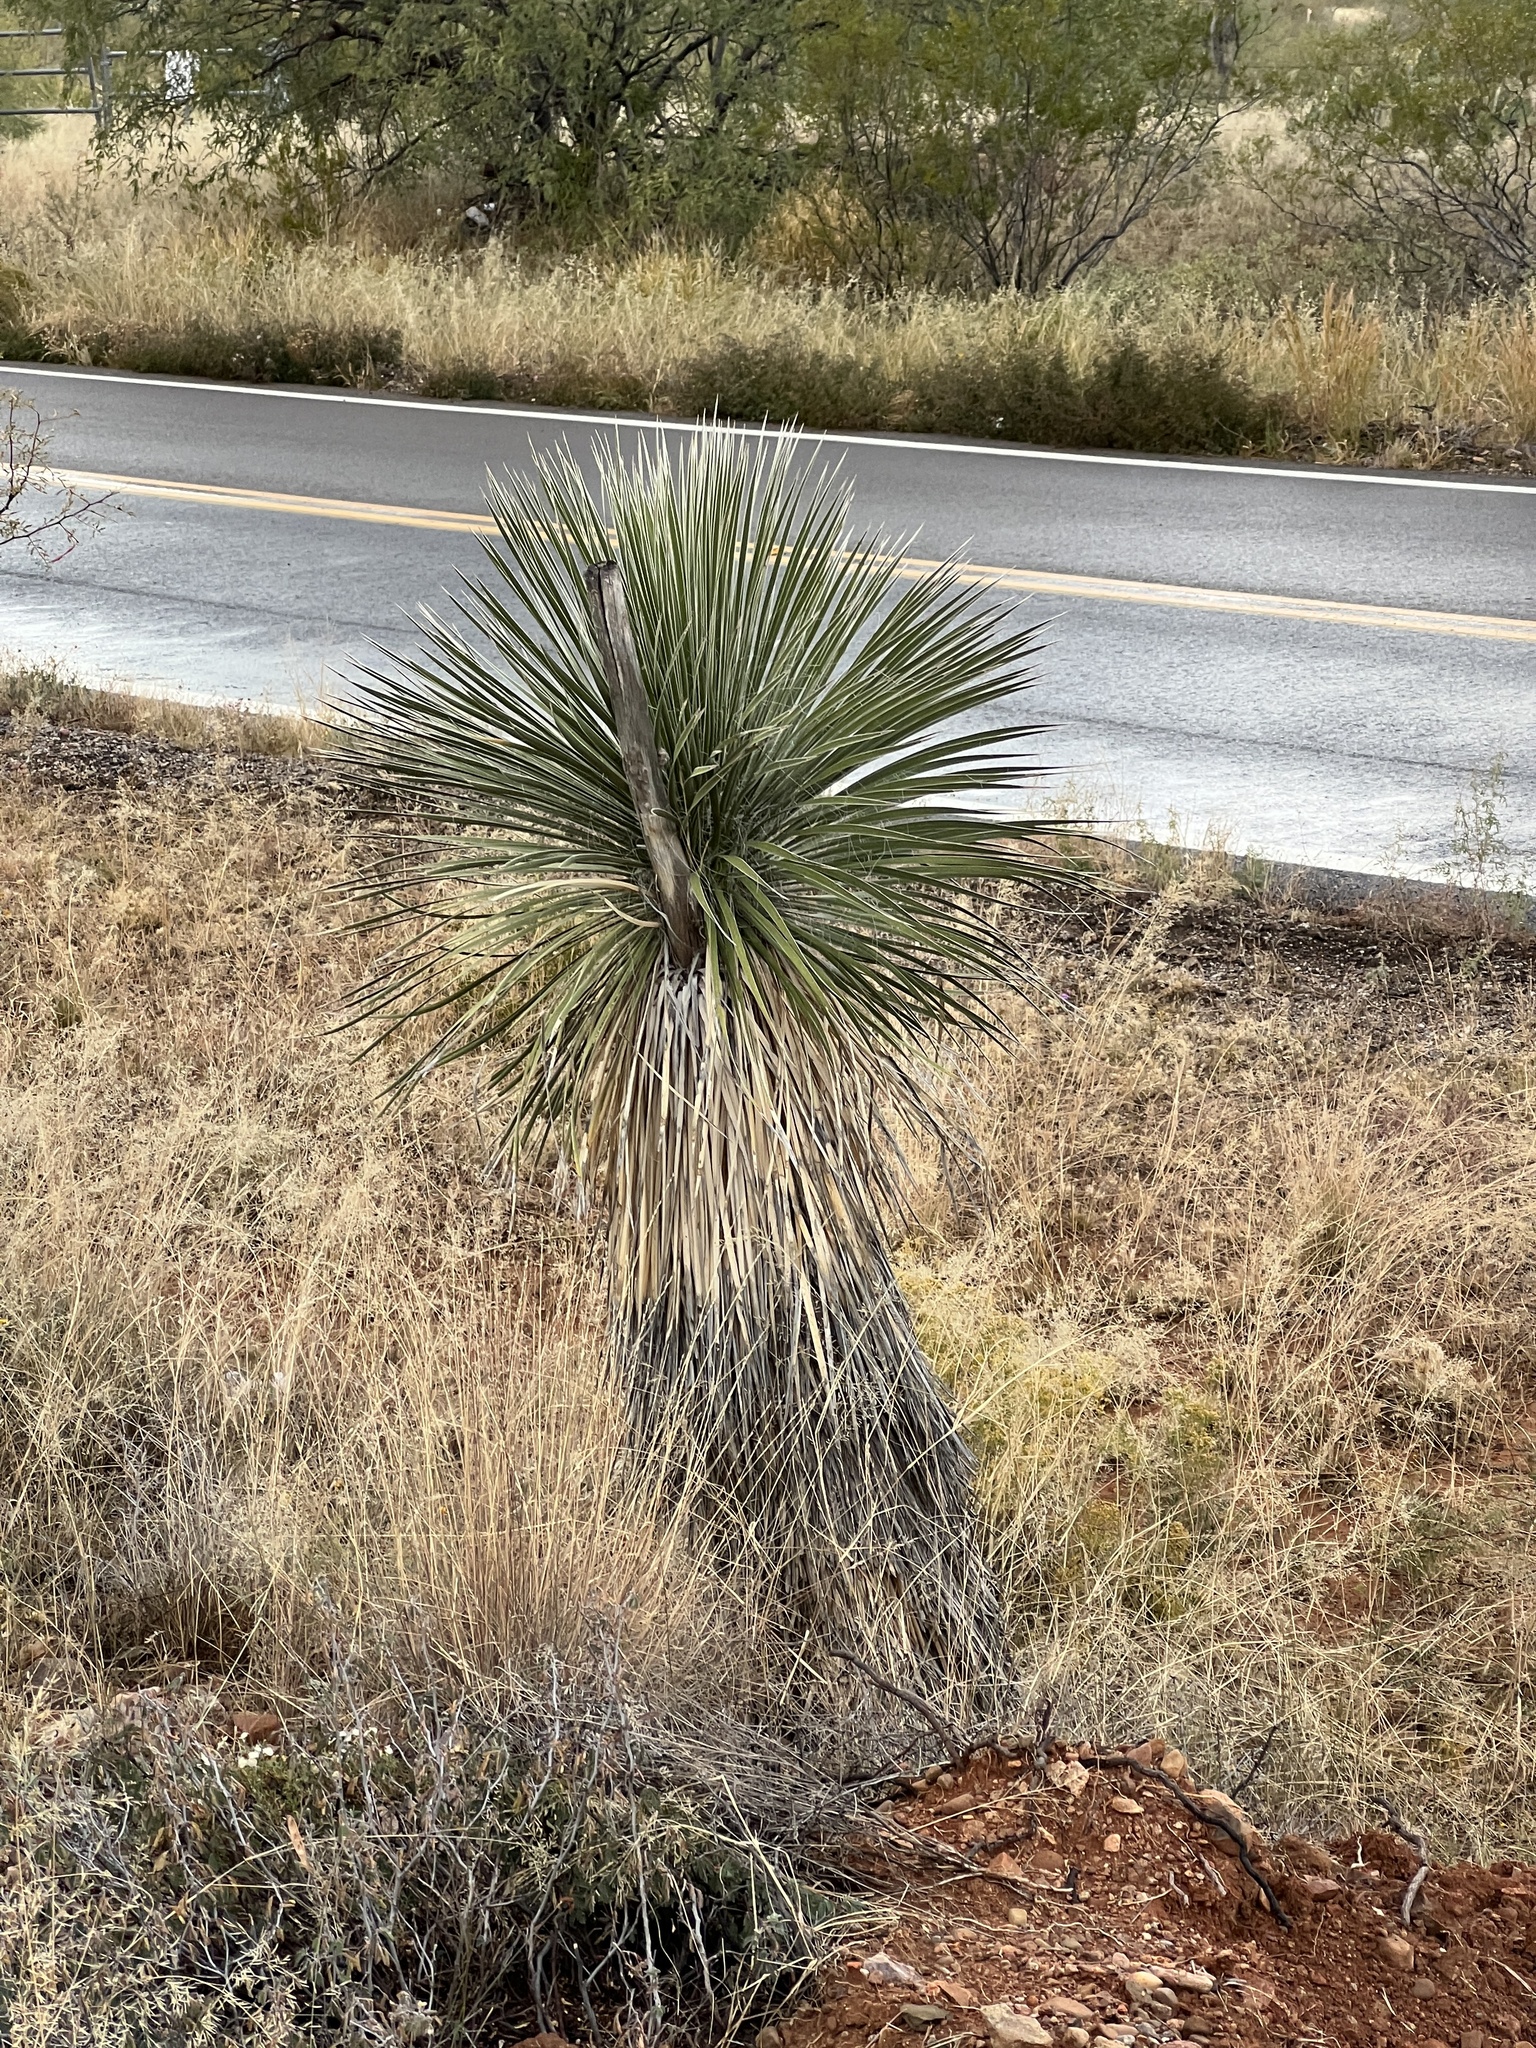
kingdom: Plantae
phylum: Tracheophyta
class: Liliopsida
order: Asparagales
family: Asparagaceae
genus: Yucca
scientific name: Yucca elata
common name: Palmella
